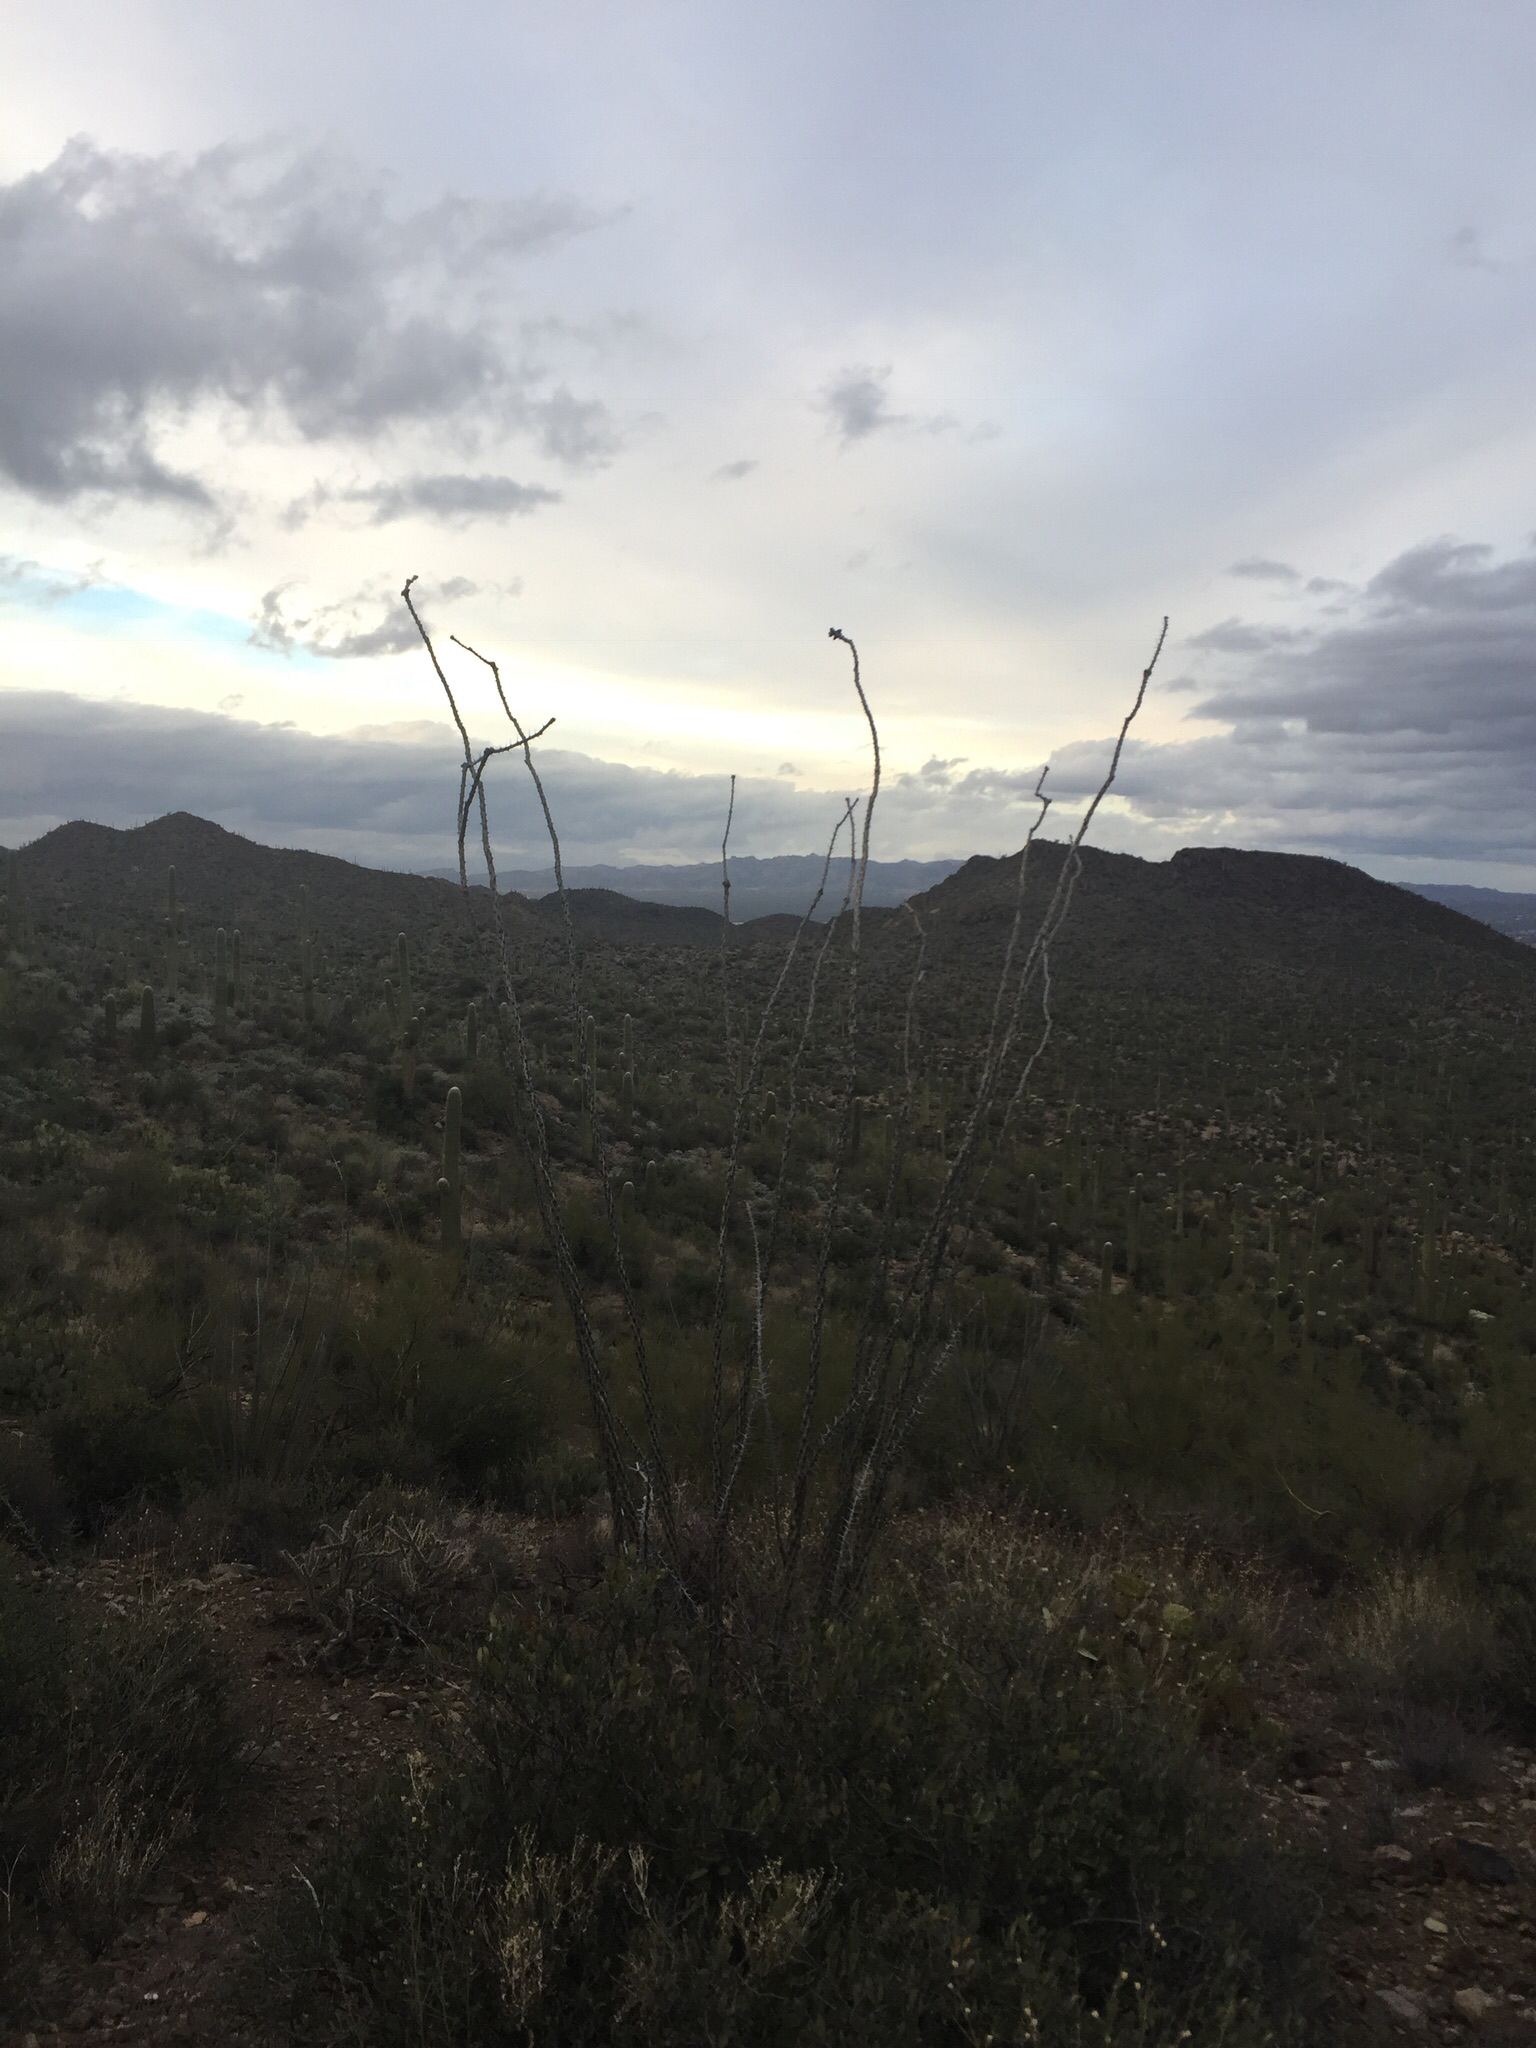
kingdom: Plantae
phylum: Tracheophyta
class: Magnoliopsida
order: Ericales
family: Fouquieriaceae
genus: Fouquieria
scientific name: Fouquieria splendens
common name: Vine-cactus
